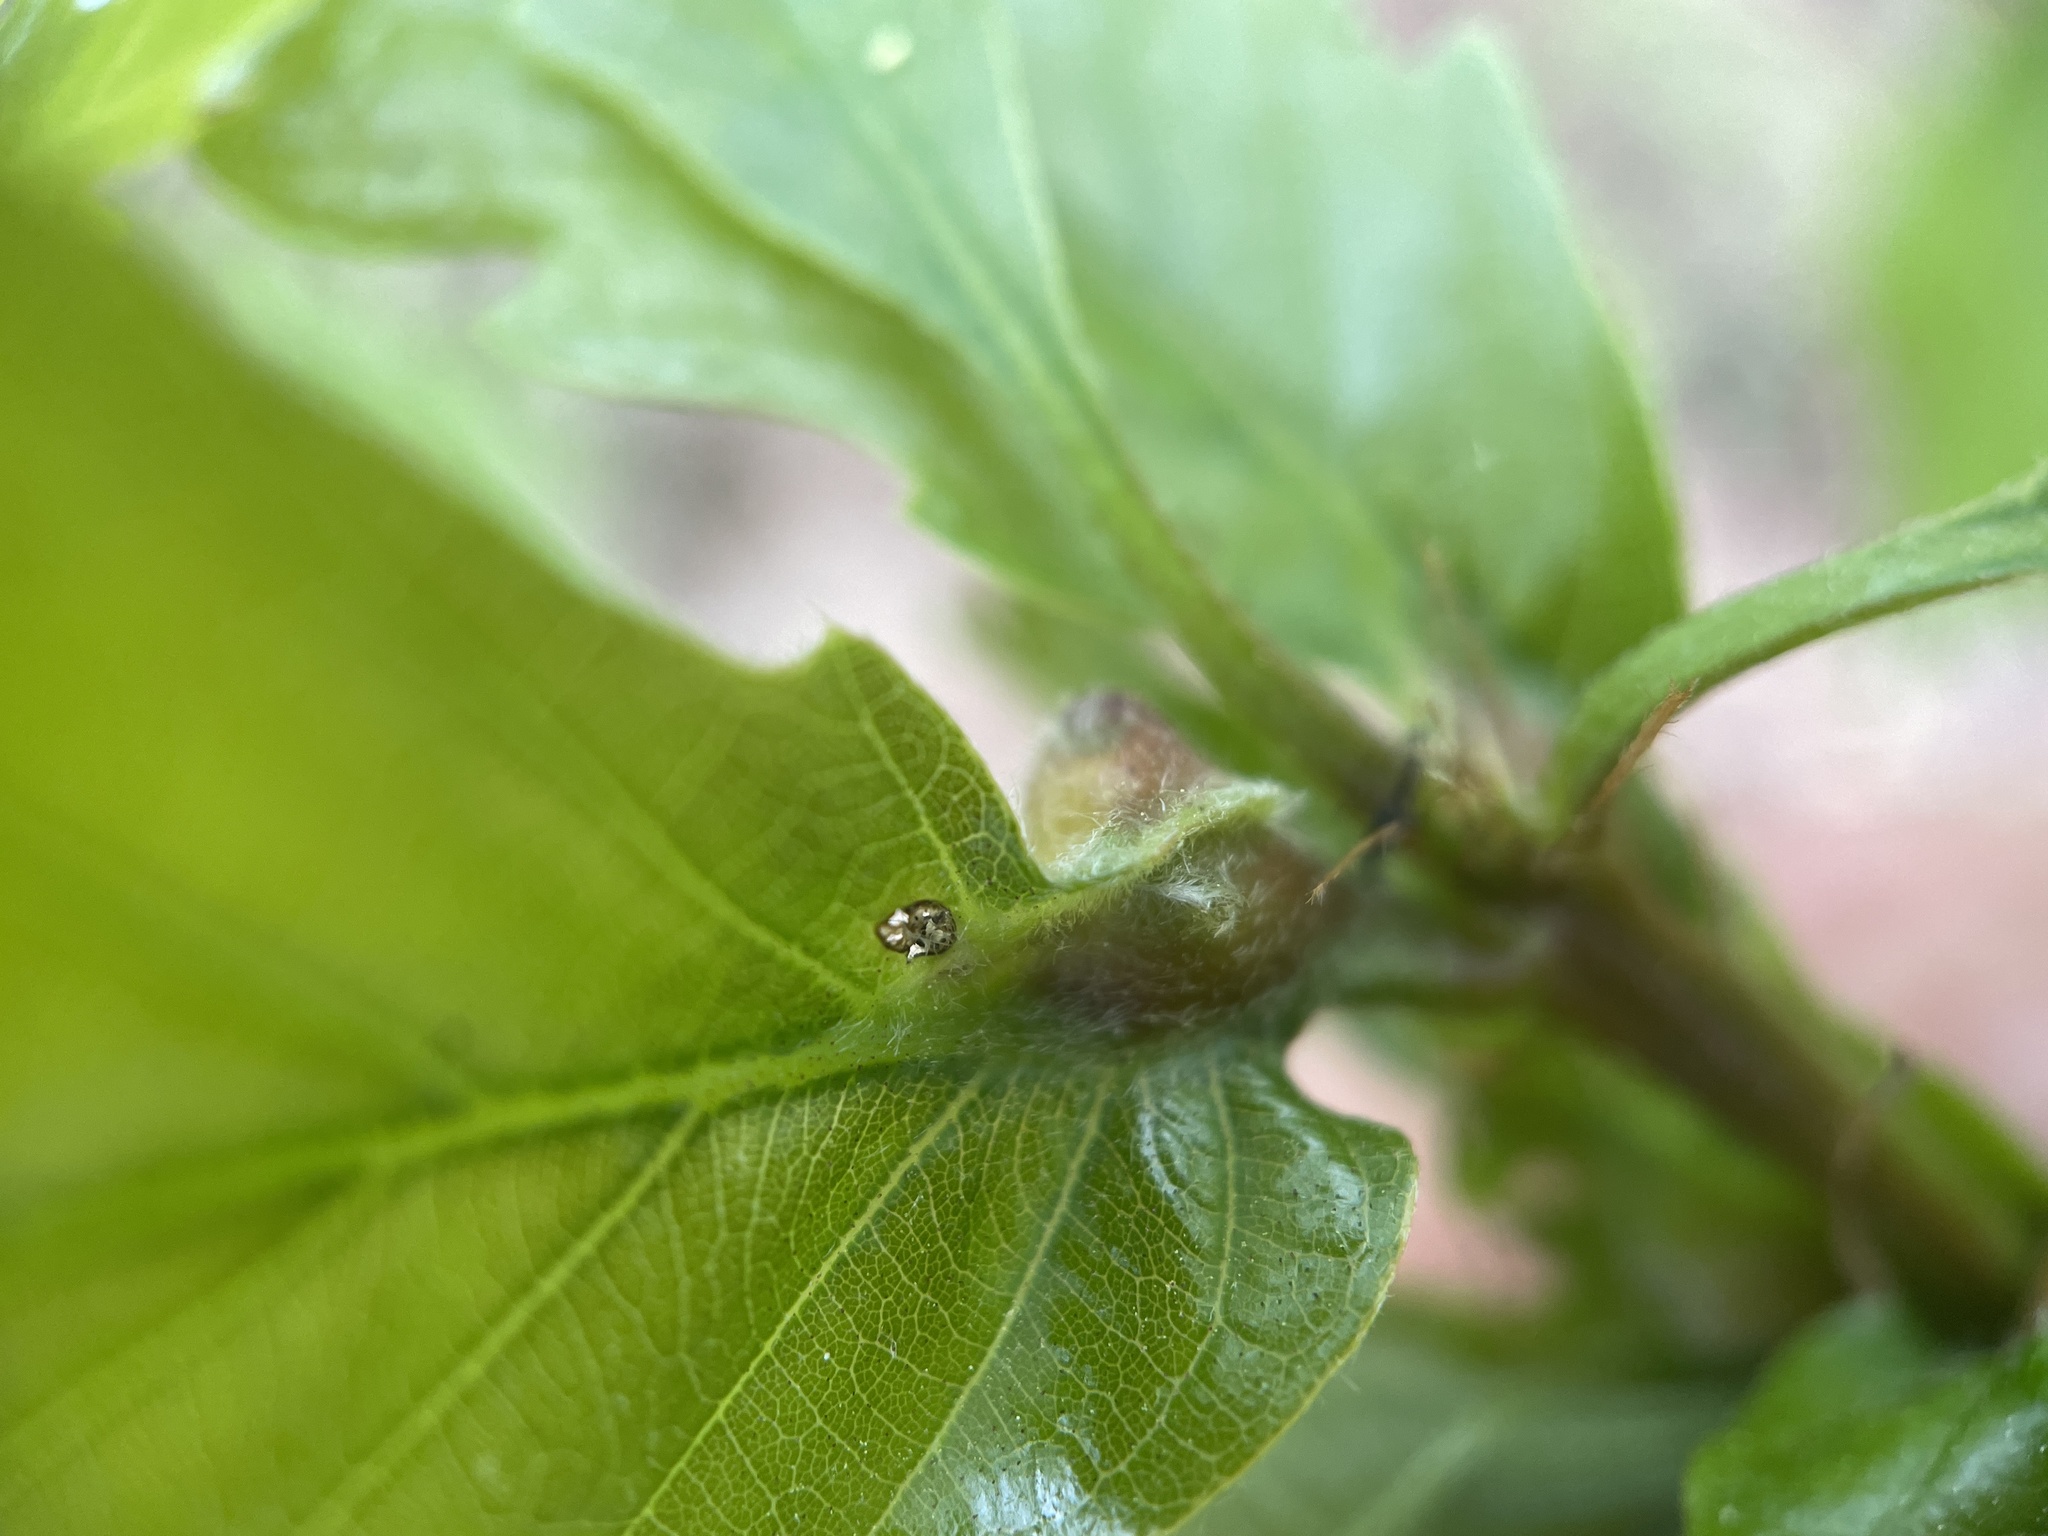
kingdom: Animalia
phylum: Arthropoda
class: Insecta
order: Hymenoptera
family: Cynipidae
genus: Andricus
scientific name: Andricus
